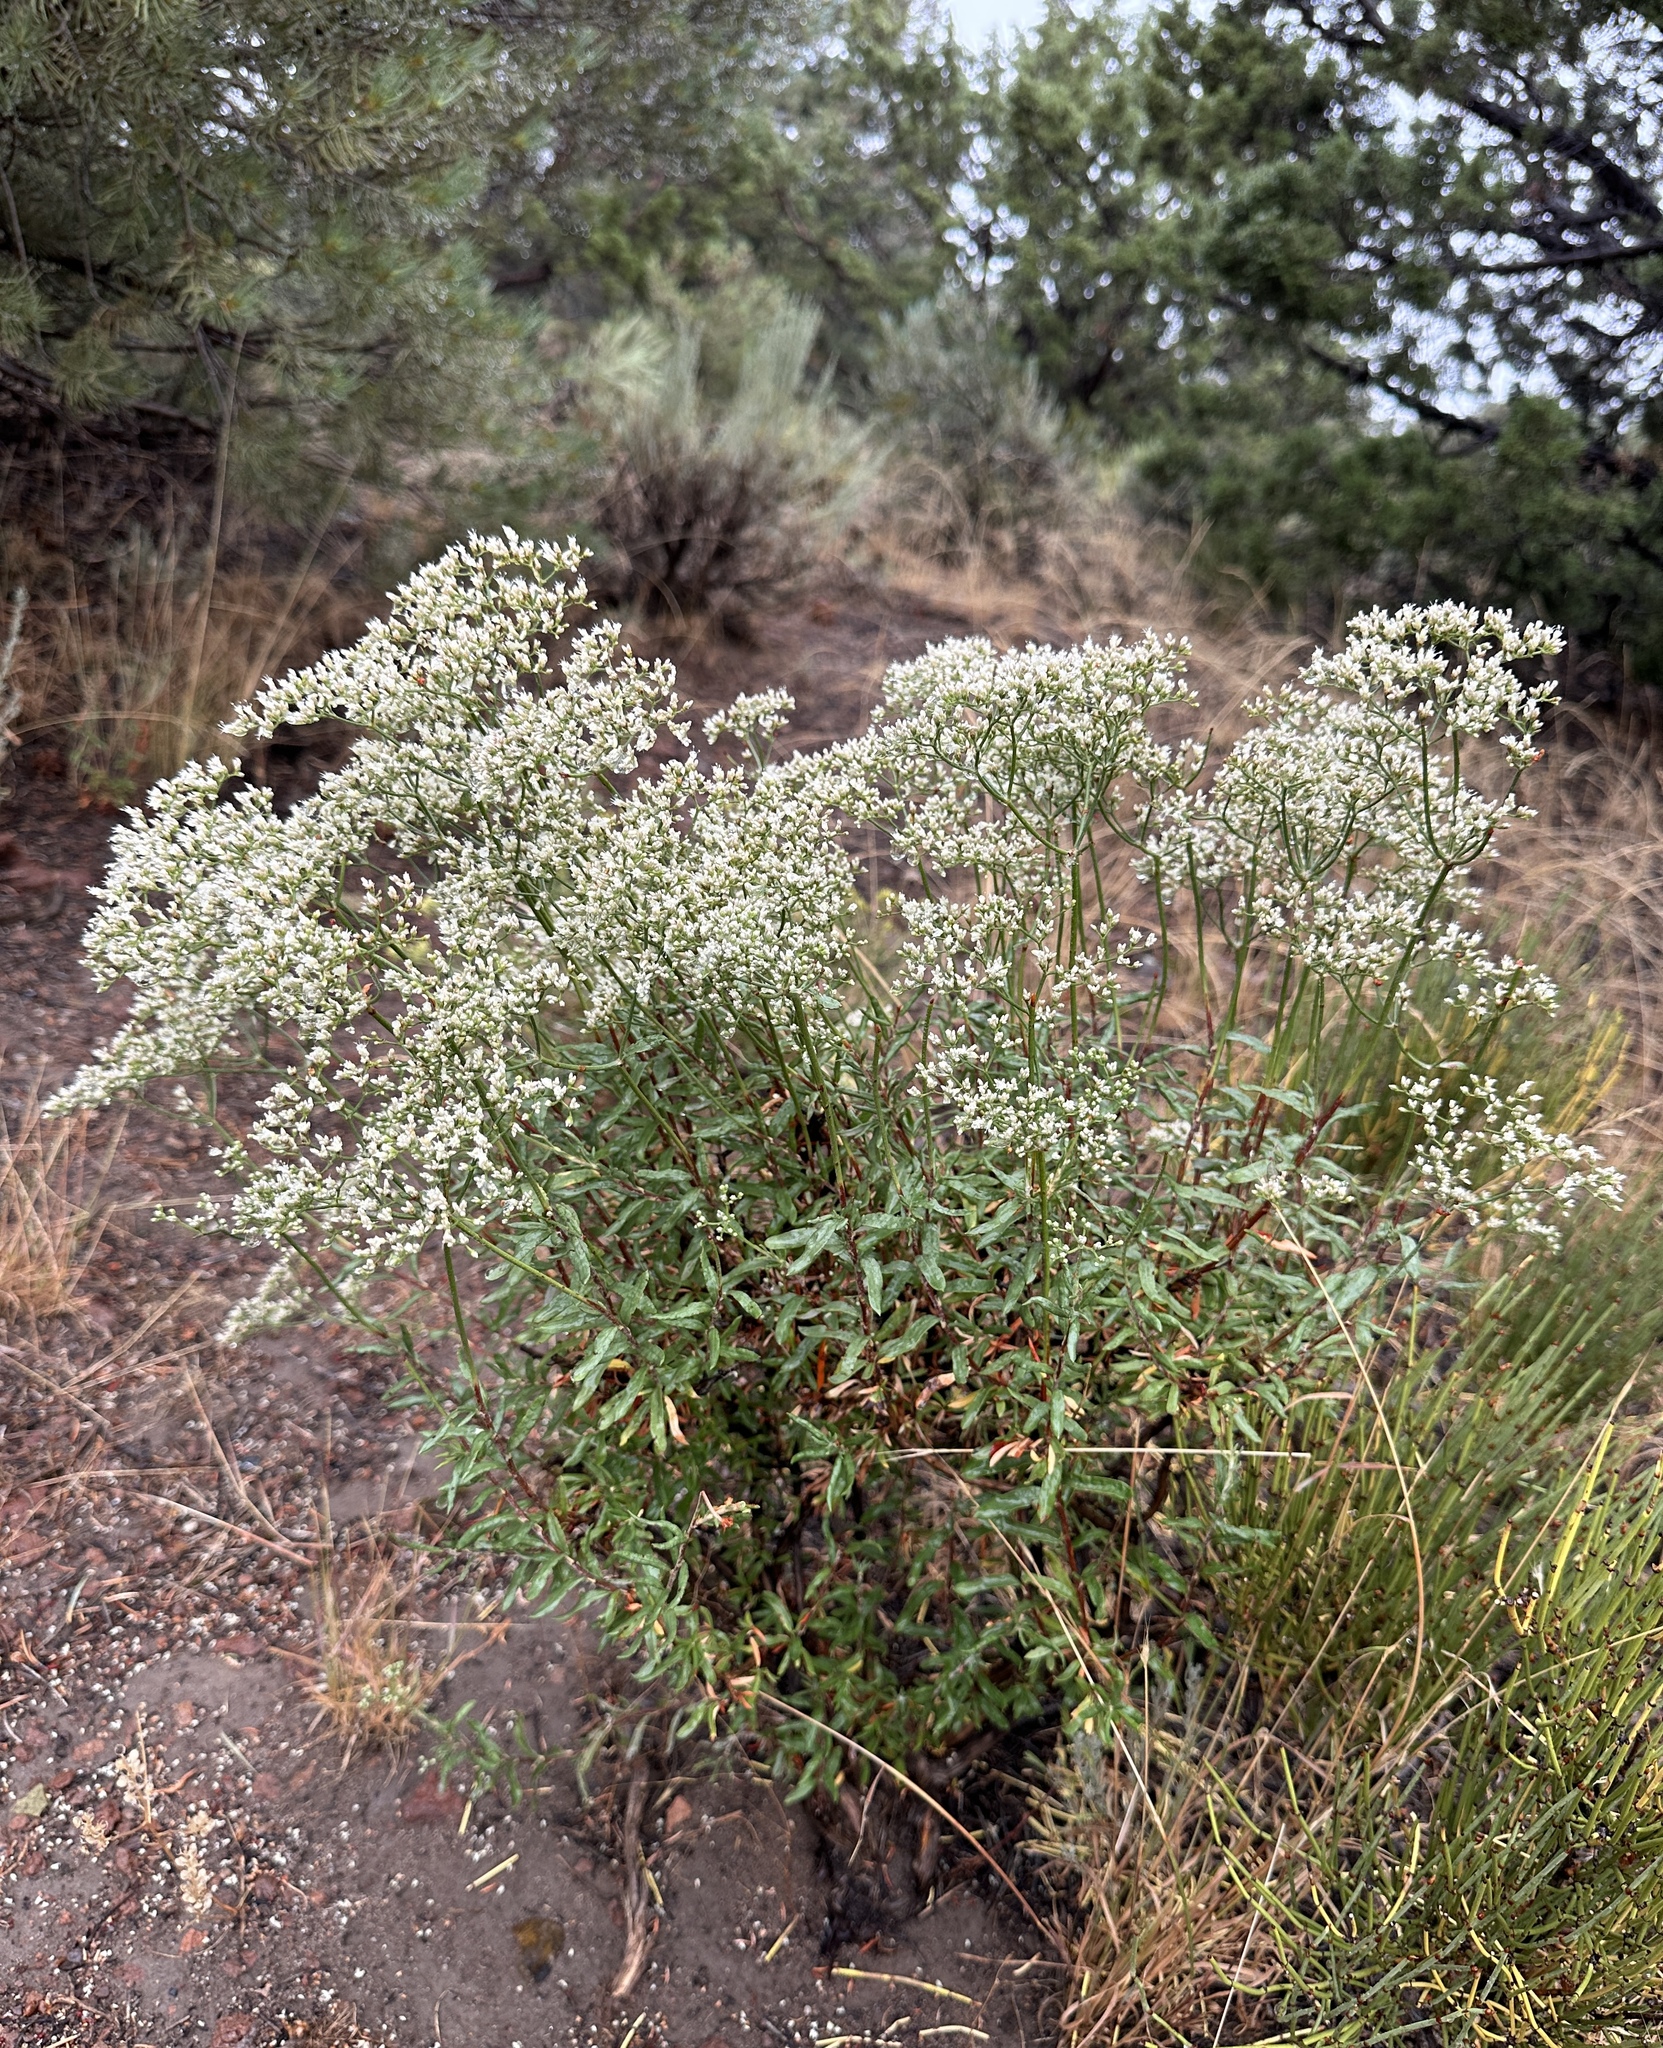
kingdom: Plantae
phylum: Tracheophyta
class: Magnoliopsida
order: Caryophyllales
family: Polygonaceae
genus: Eriogonum
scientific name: Eriogonum microtheca
